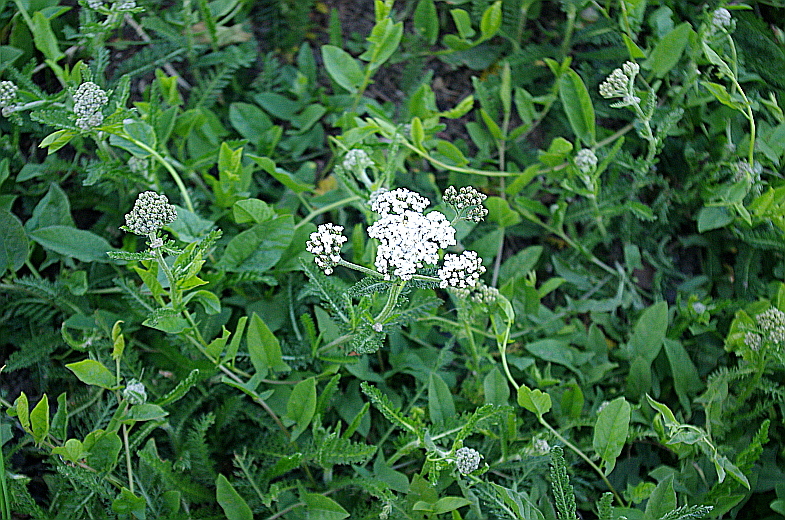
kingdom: Plantae
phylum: Tracheophyta
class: Magnoliopsida
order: Asterales
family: Asteraceae
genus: Achillea
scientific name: Achillea millefolium
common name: Yarrow
